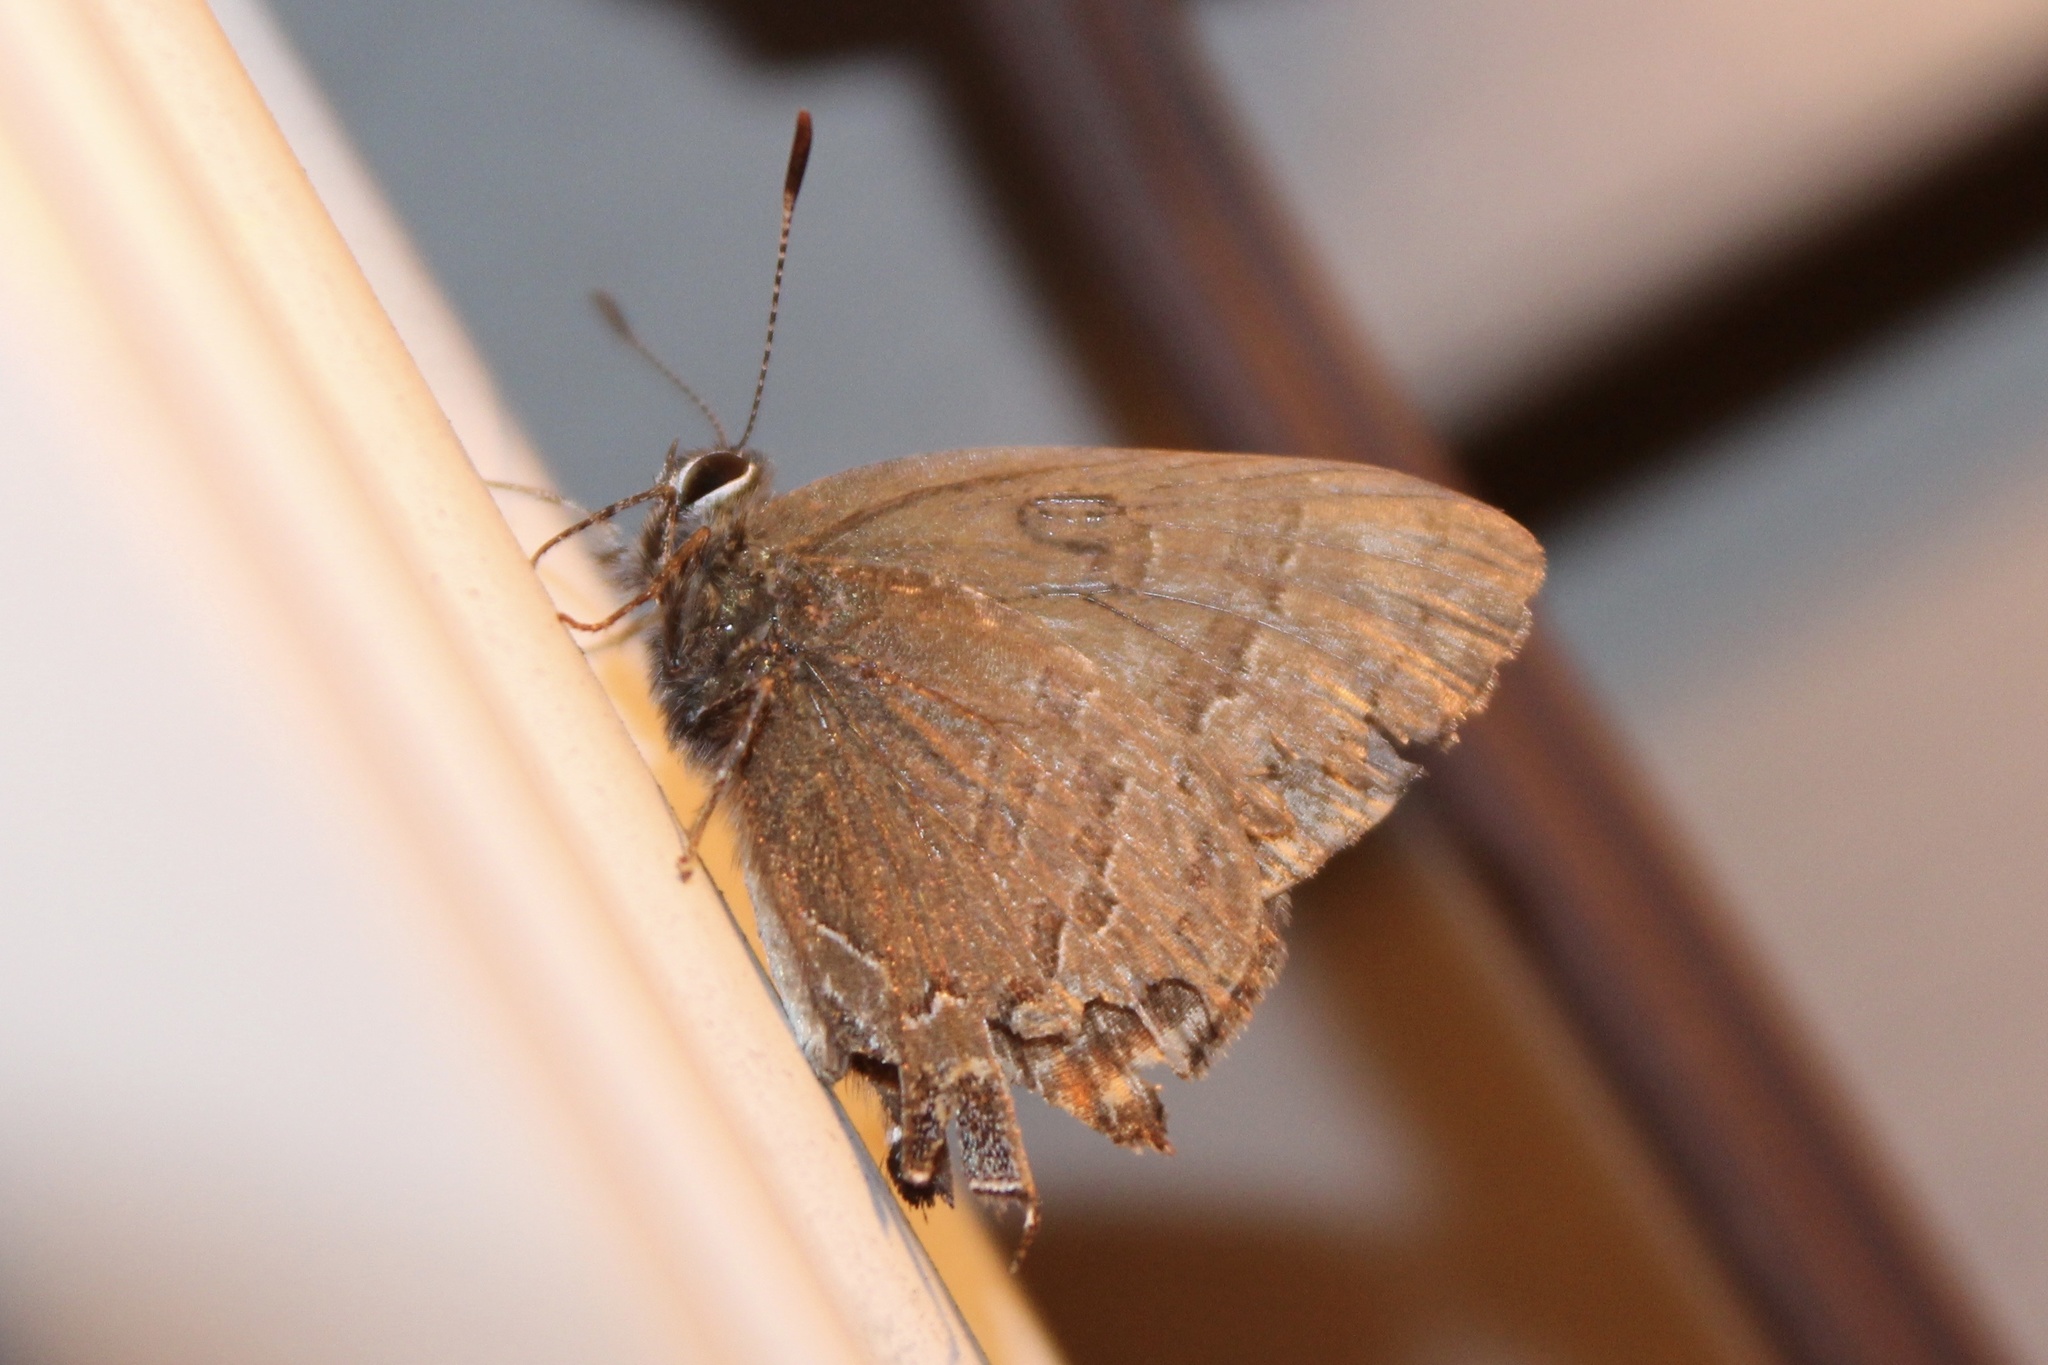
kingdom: Animalia
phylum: Arthropoda
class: Insecta
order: Lepidoptera
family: Lycaenidae
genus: Satyrium
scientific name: Satyrium calanus
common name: Banded hairstreak
